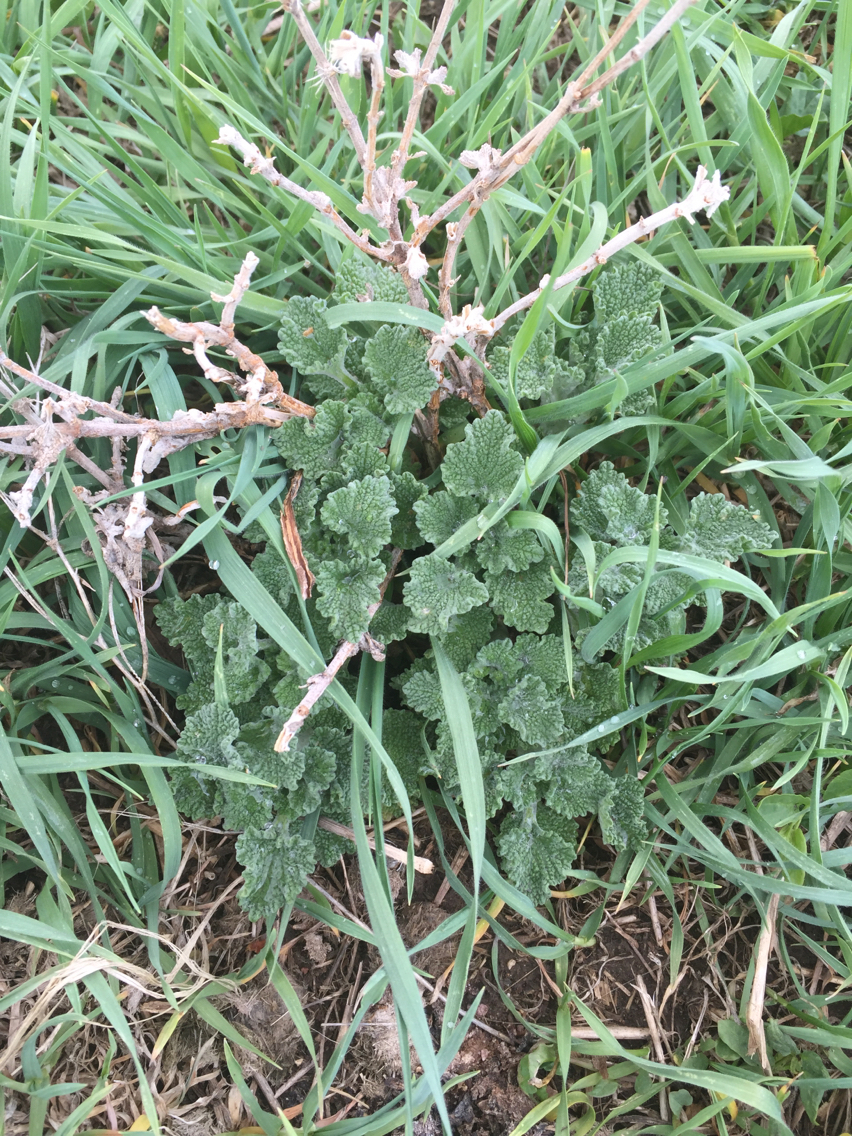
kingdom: Plantae
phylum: Tracheophyta
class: Magnoliopsida
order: Lamiales
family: Lamiaceae
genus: Marrubium
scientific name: Marrubium vulgare
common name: Horehound
